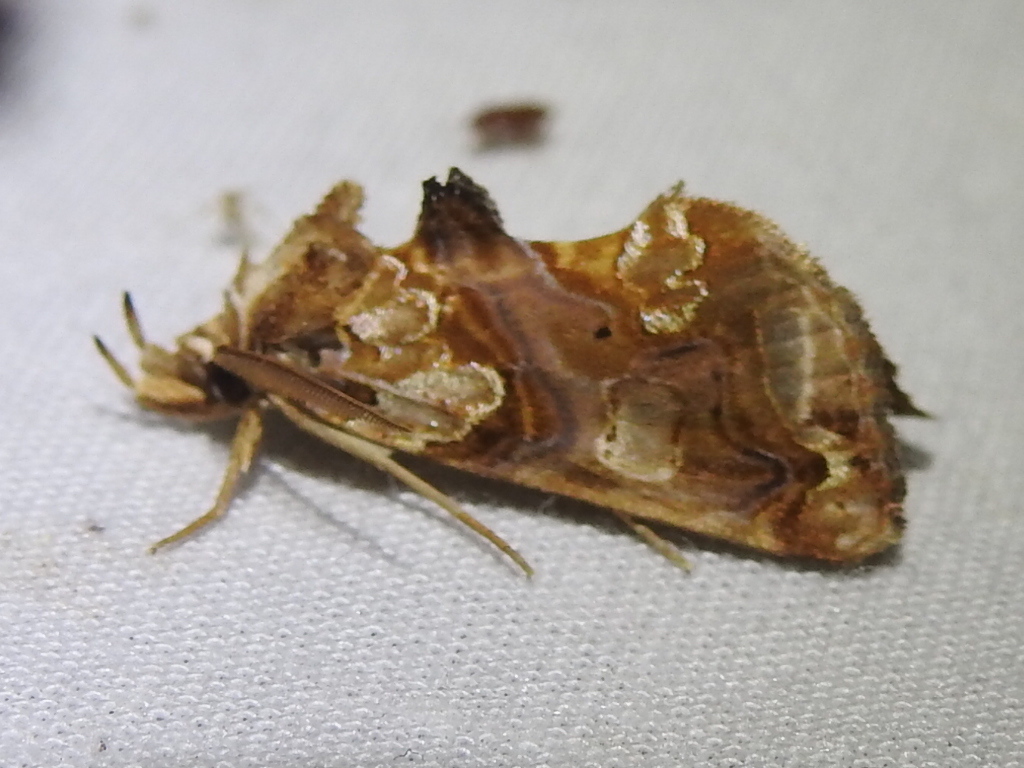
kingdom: Animalia
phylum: Arthropoda
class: Insecta
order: Lepidoptera
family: Erebidae
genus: Plusiodonta
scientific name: Plusiodonta compressipalpis
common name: Moonseed moth
